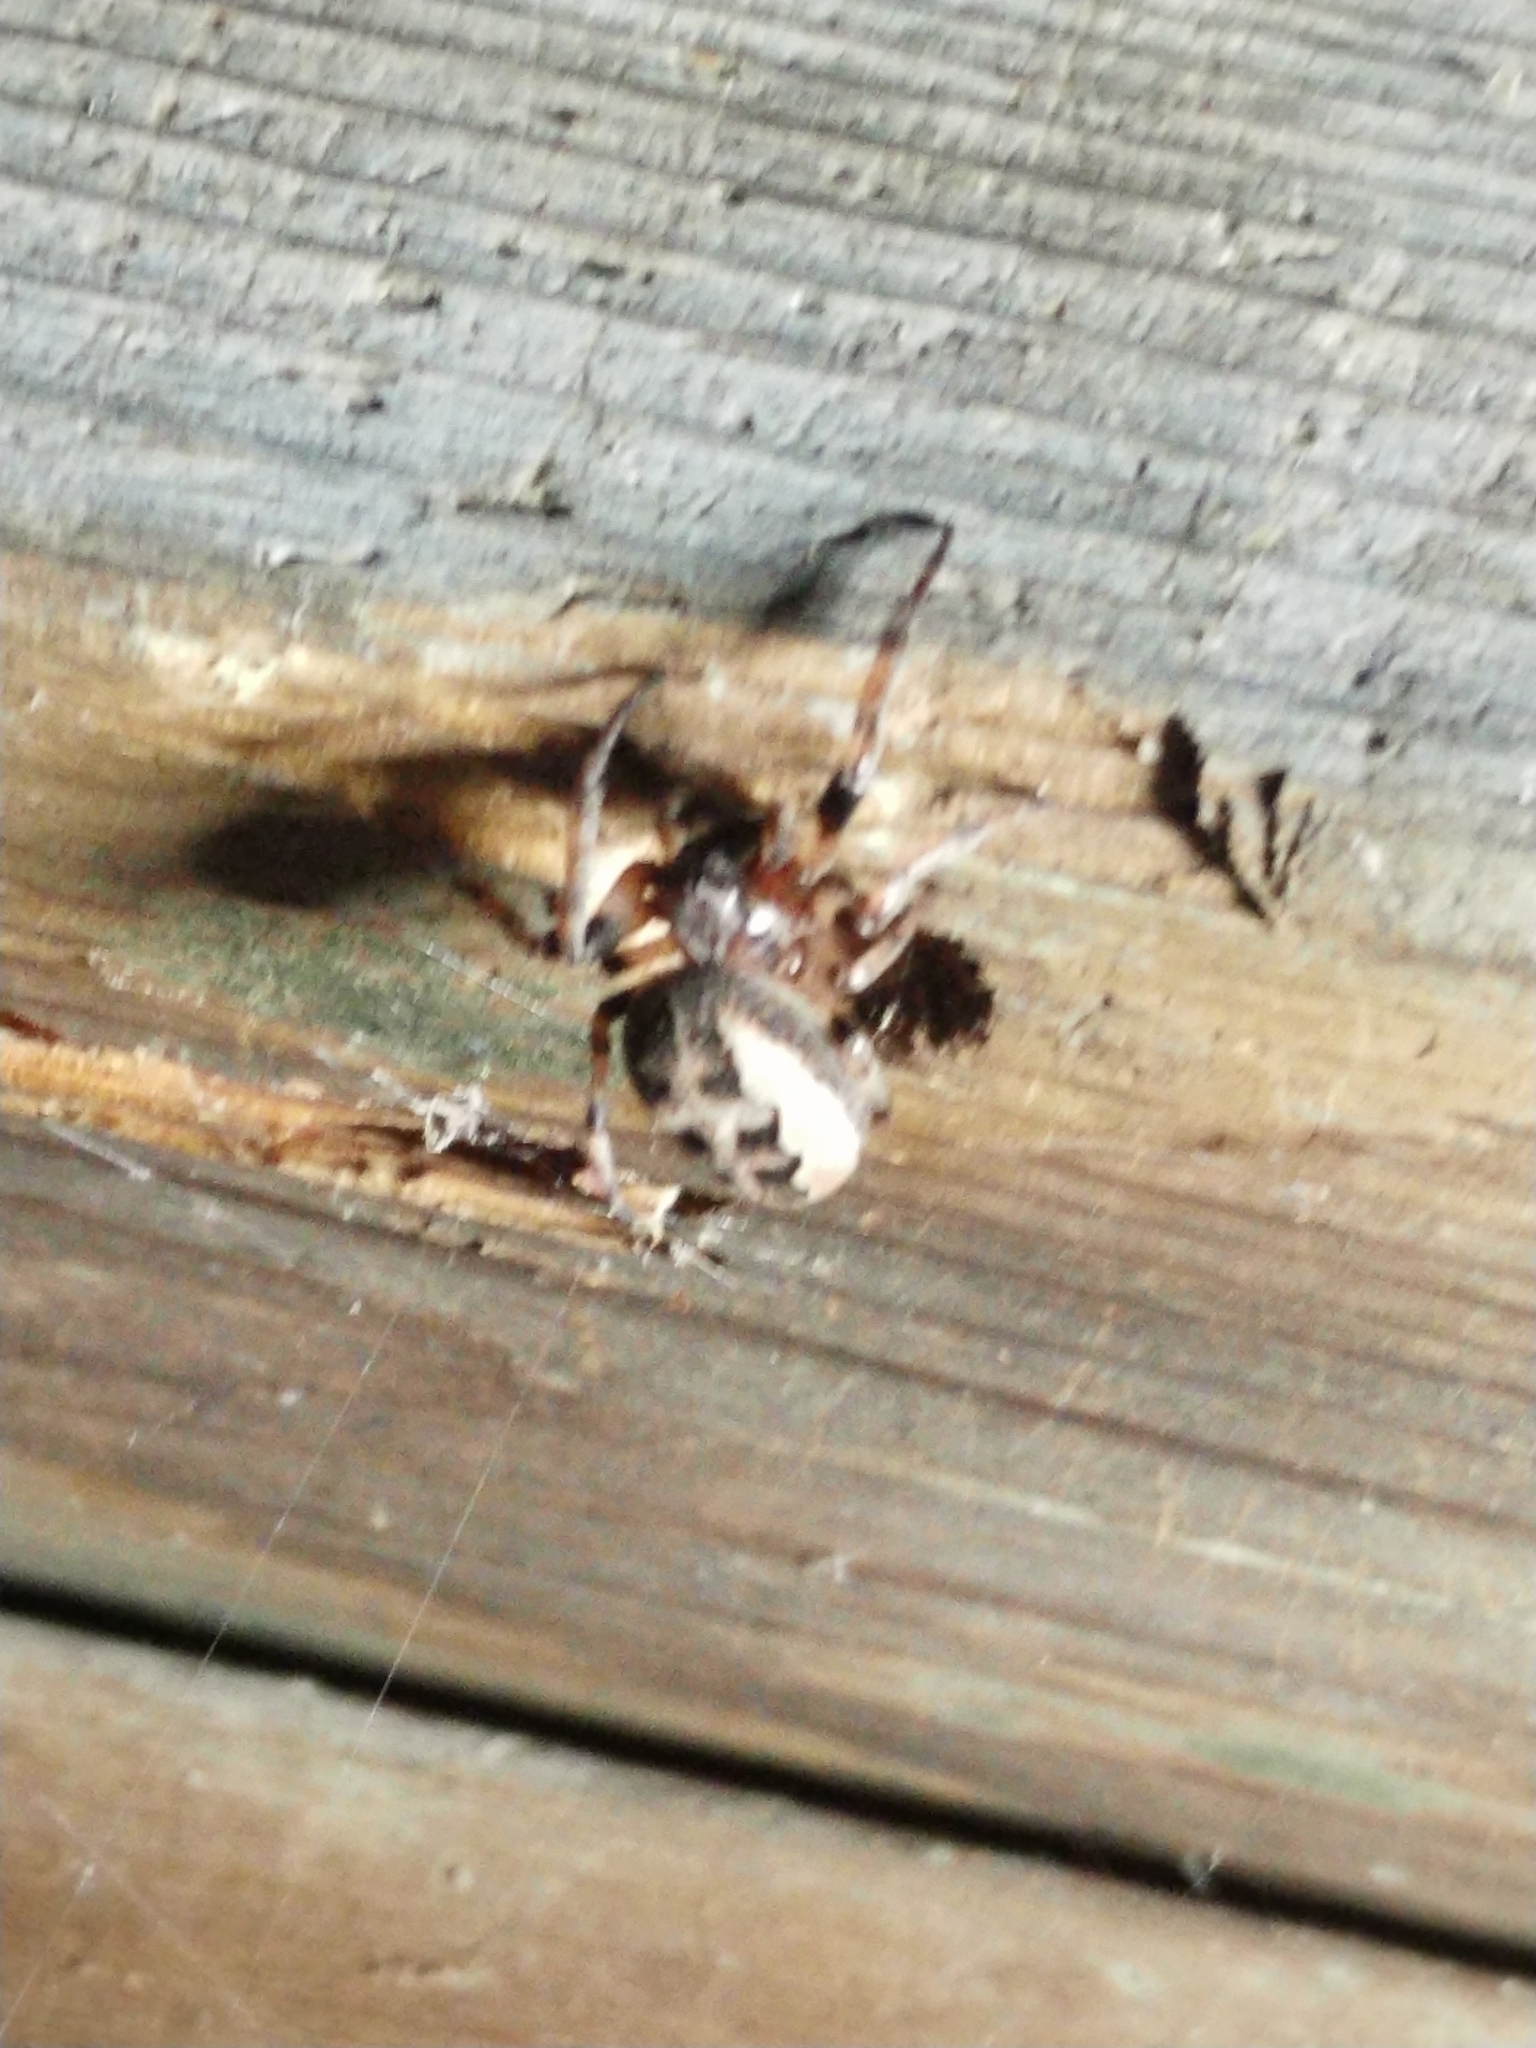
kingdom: Animalia
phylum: Arthropoda
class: Arachnida
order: Araneae
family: Araneidae
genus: Larinioides
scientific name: Larinioides cornutus
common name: Furrow orbweaver
